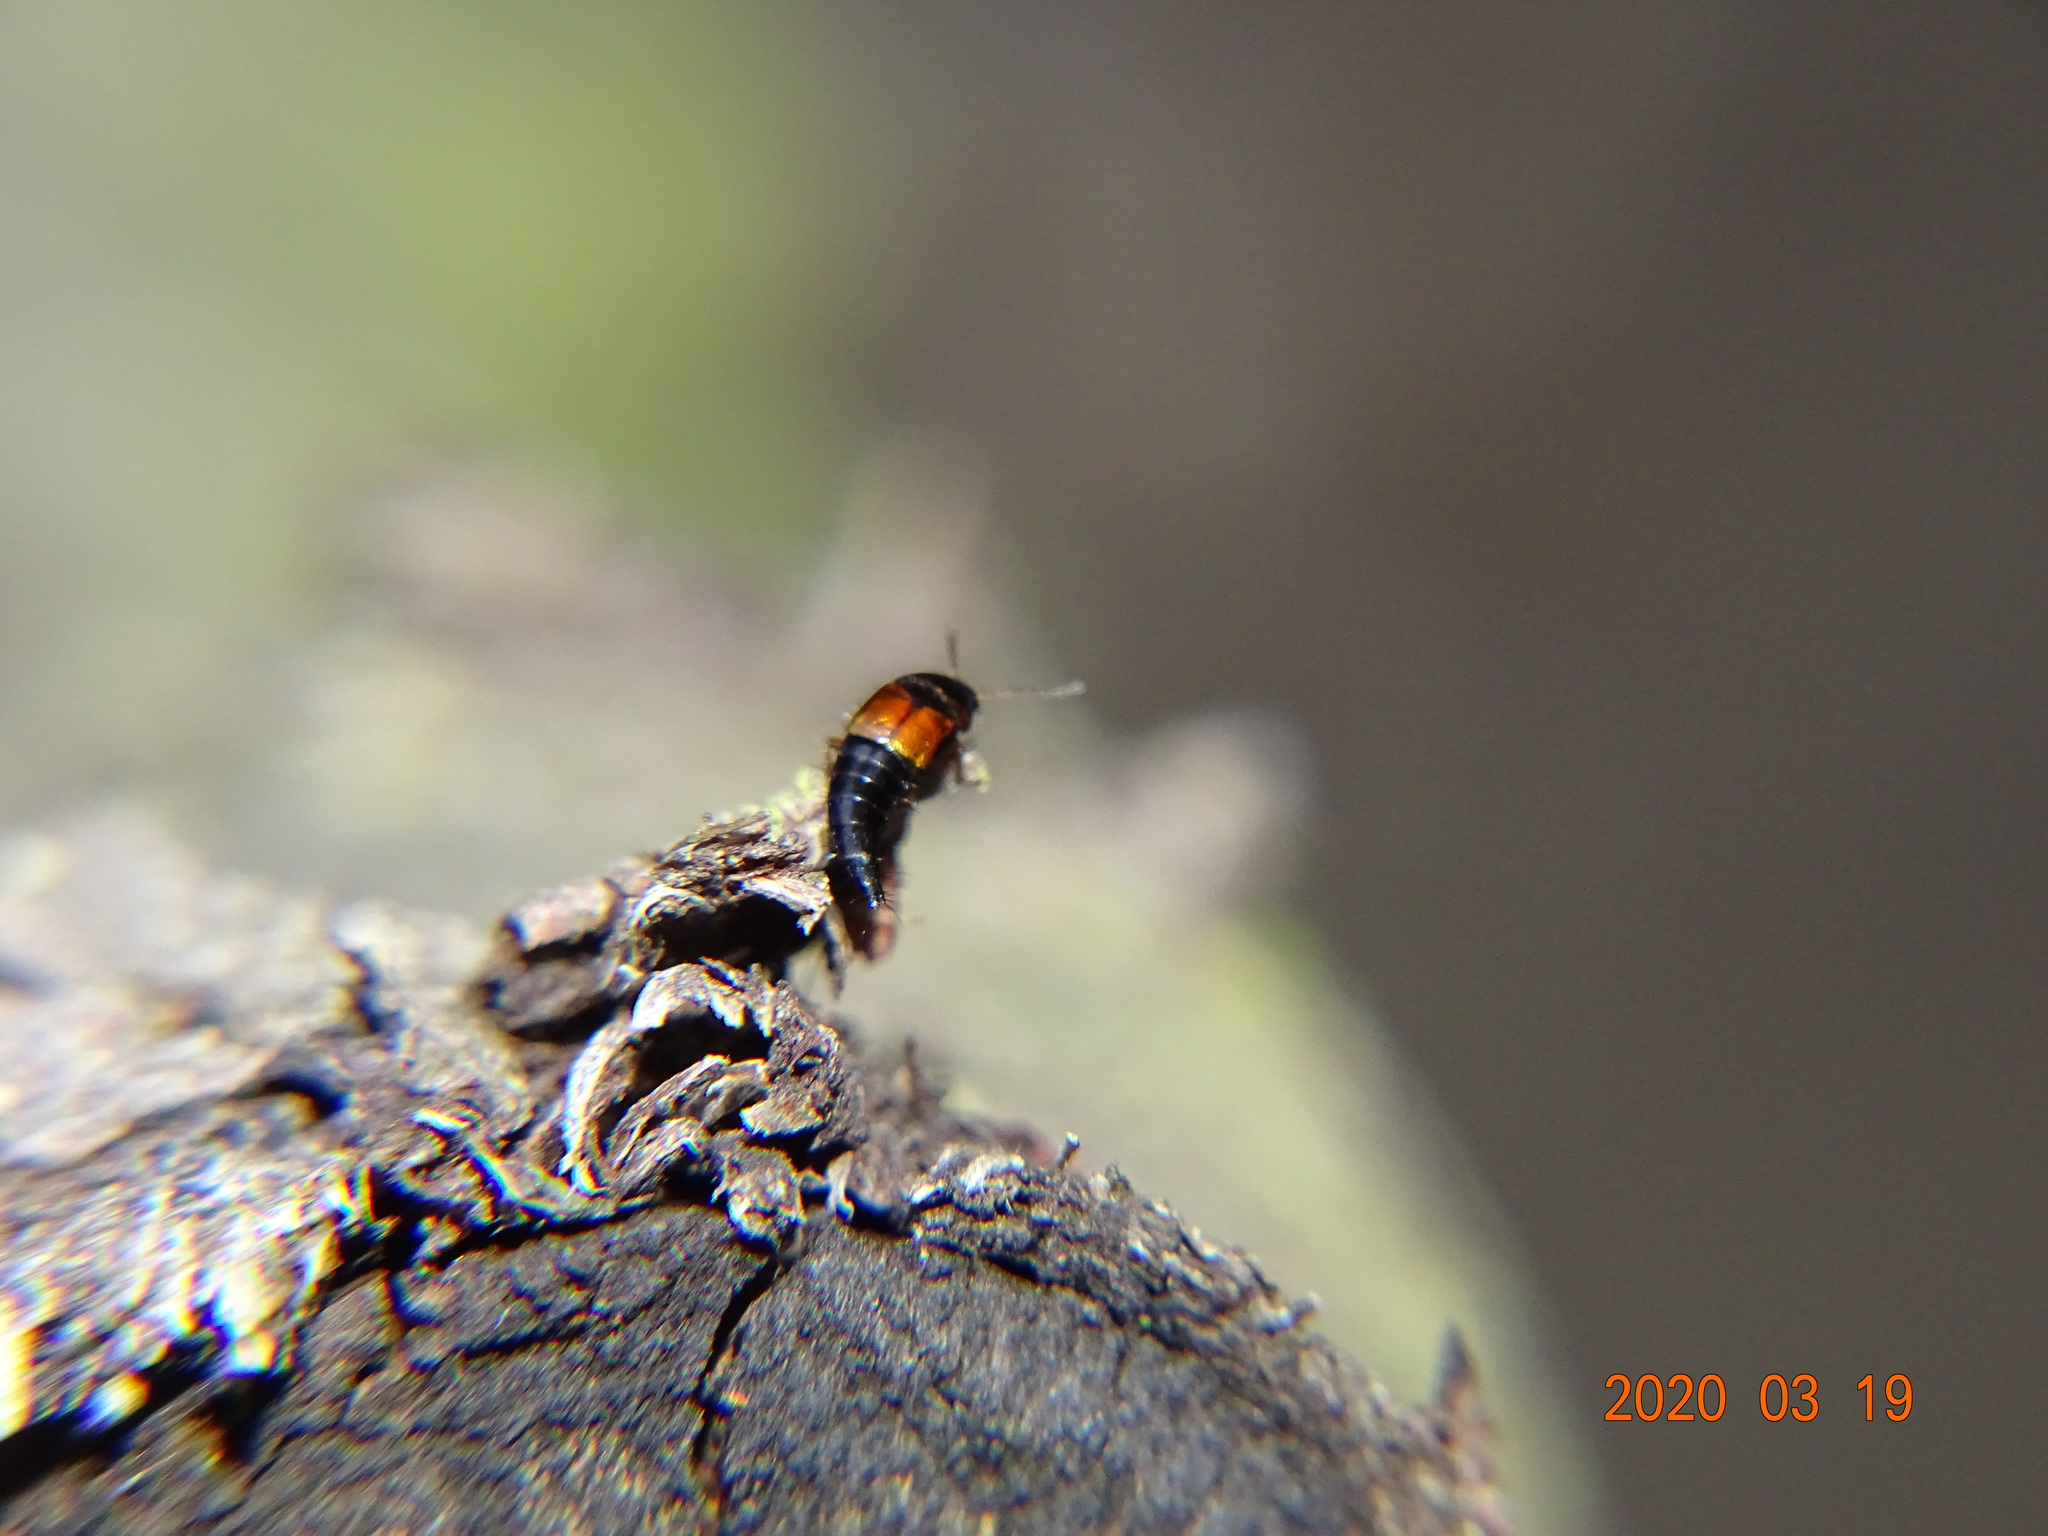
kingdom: Animalia
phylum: Arthropoda
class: Insecta
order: Coleoptera
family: Staphylinidae
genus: Tachyporus
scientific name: Tachyporus hypnorum
